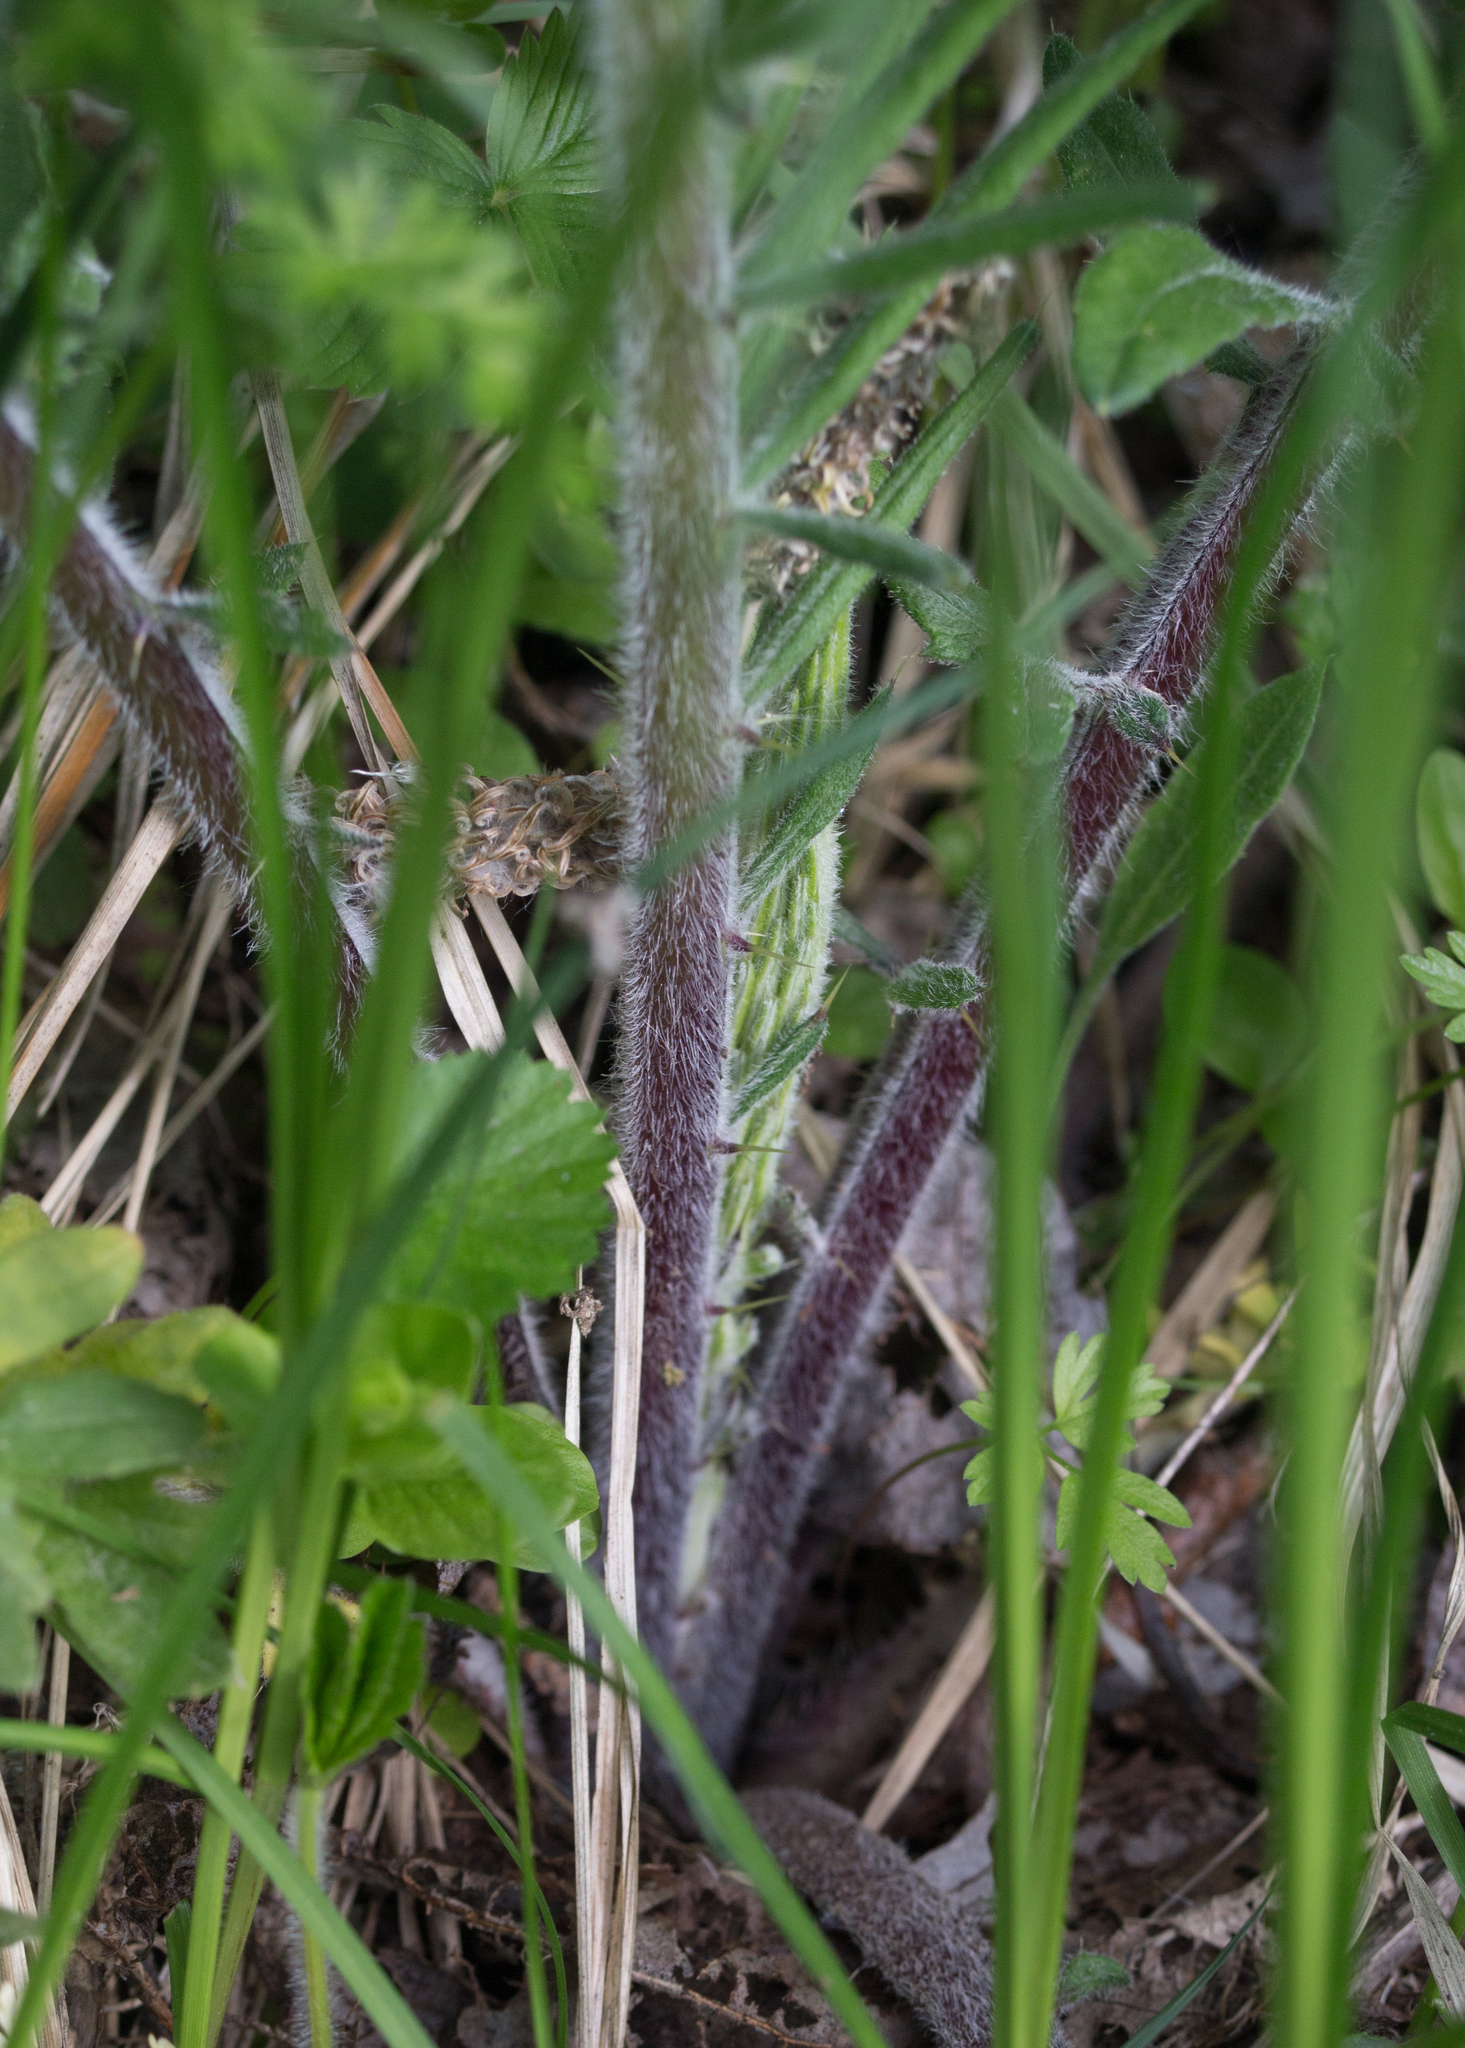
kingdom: Plantae
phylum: Tracheophyta
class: Magnoliopsida
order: Asterales
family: Asteraceae
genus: Lophiolepis
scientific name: Lophiolepis decussata
